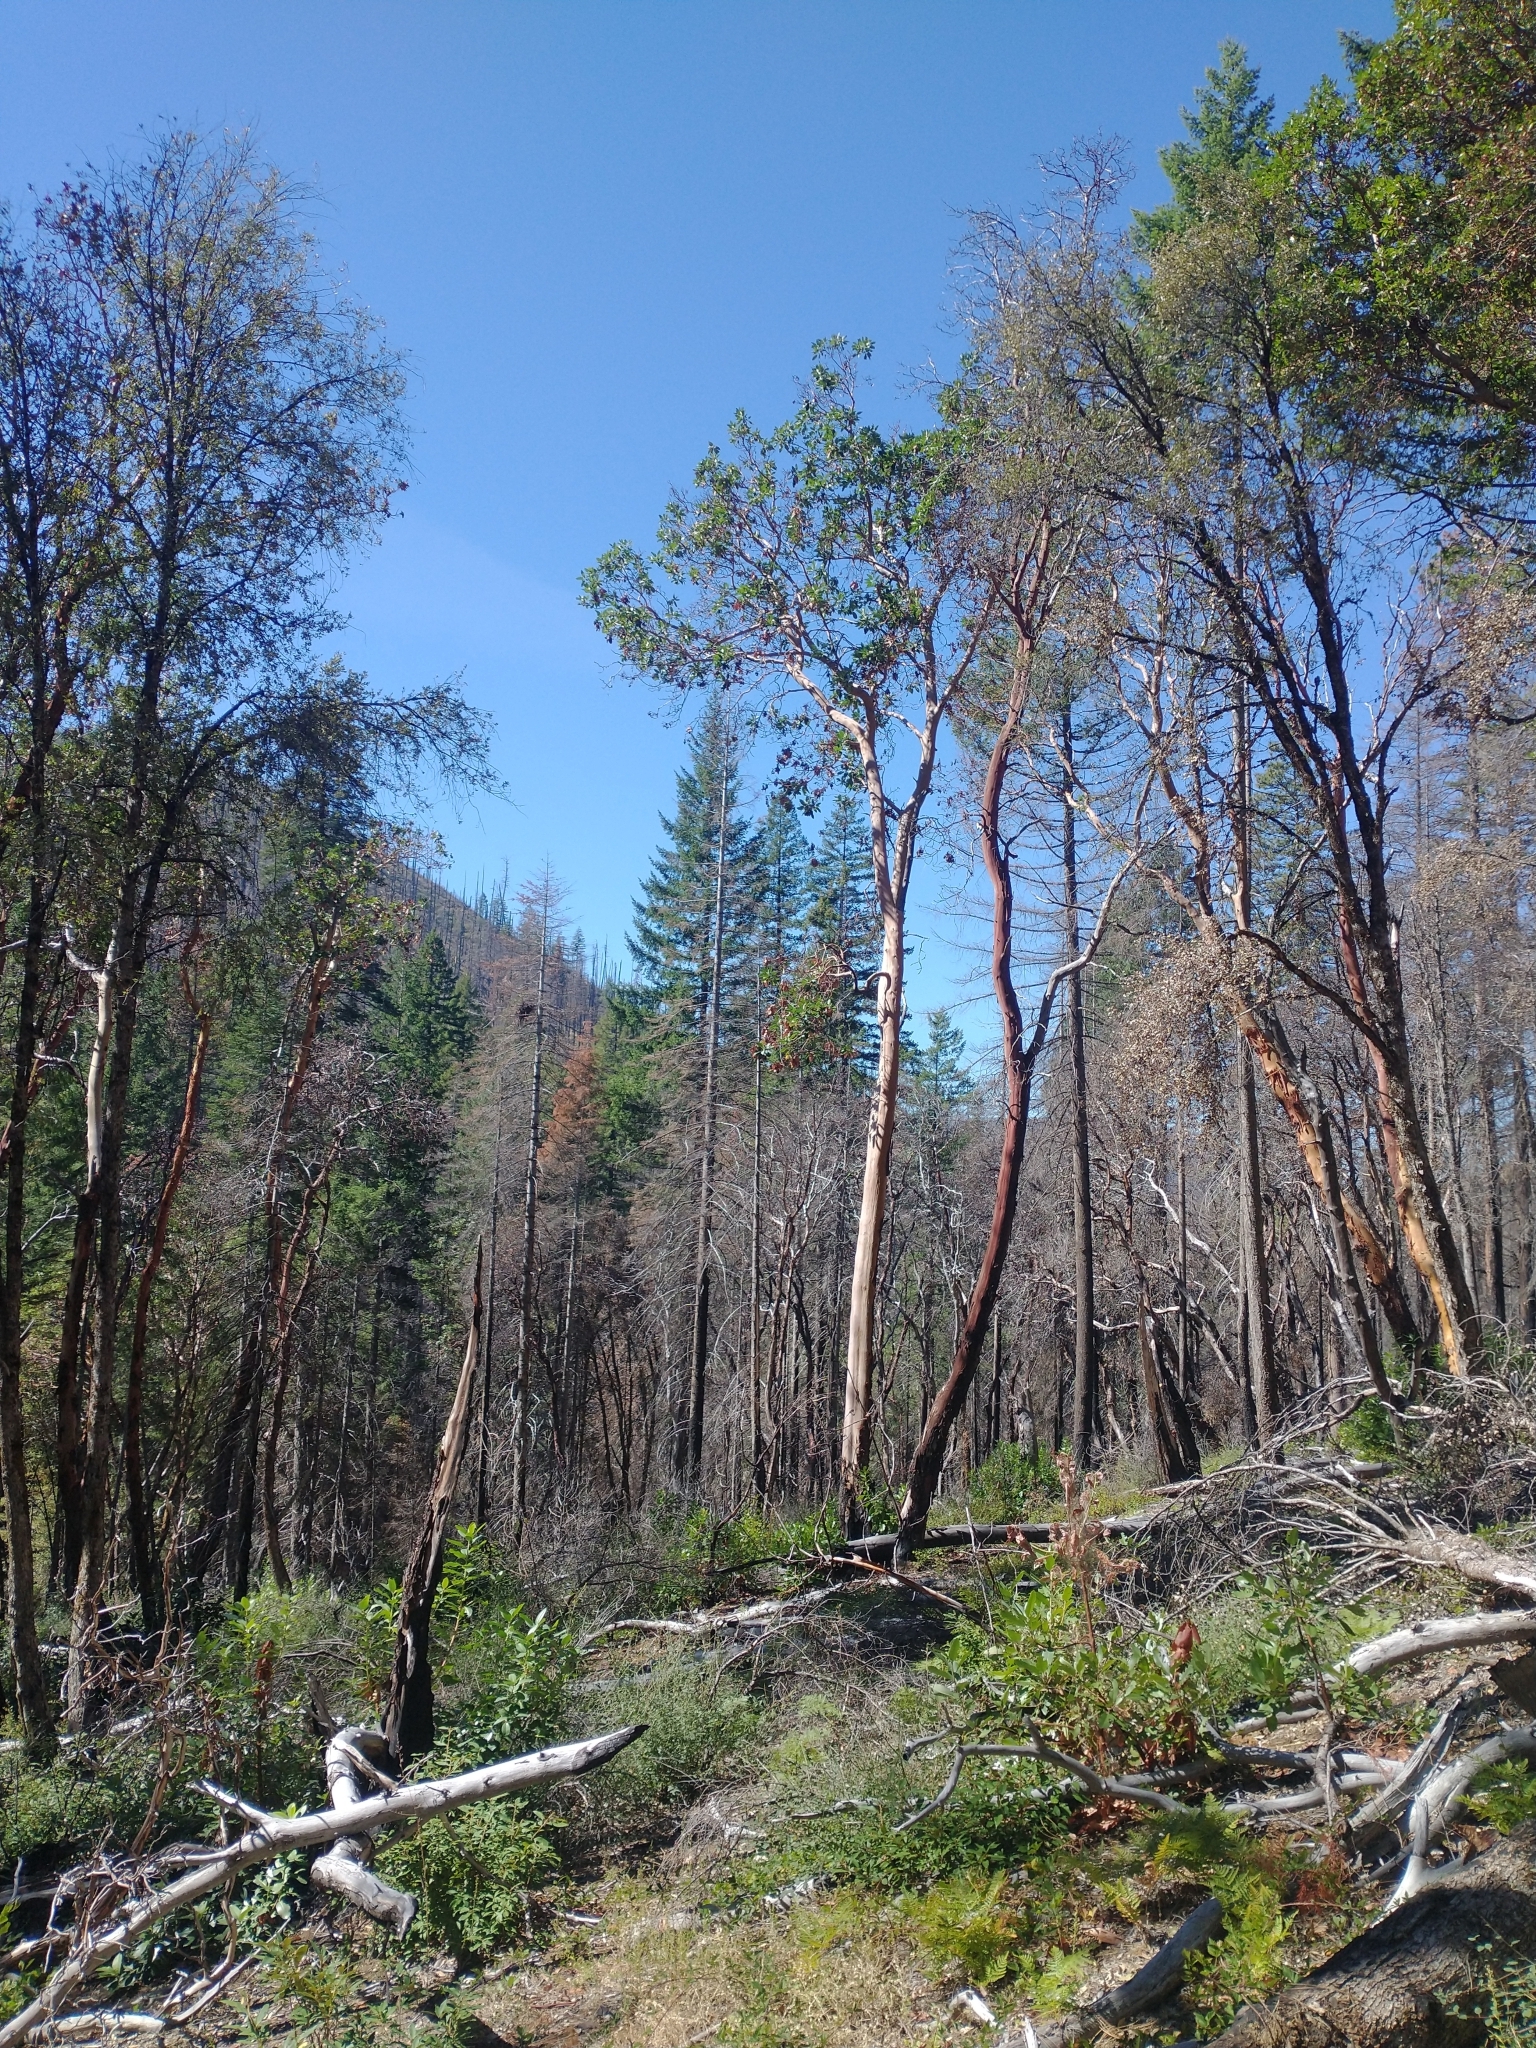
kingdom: Plantae
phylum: Tracheophyta
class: Magnoliopsida
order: Ericales
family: Ericaceae
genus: Arbutus
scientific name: Arbutus menziesii
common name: Pacific madrone
